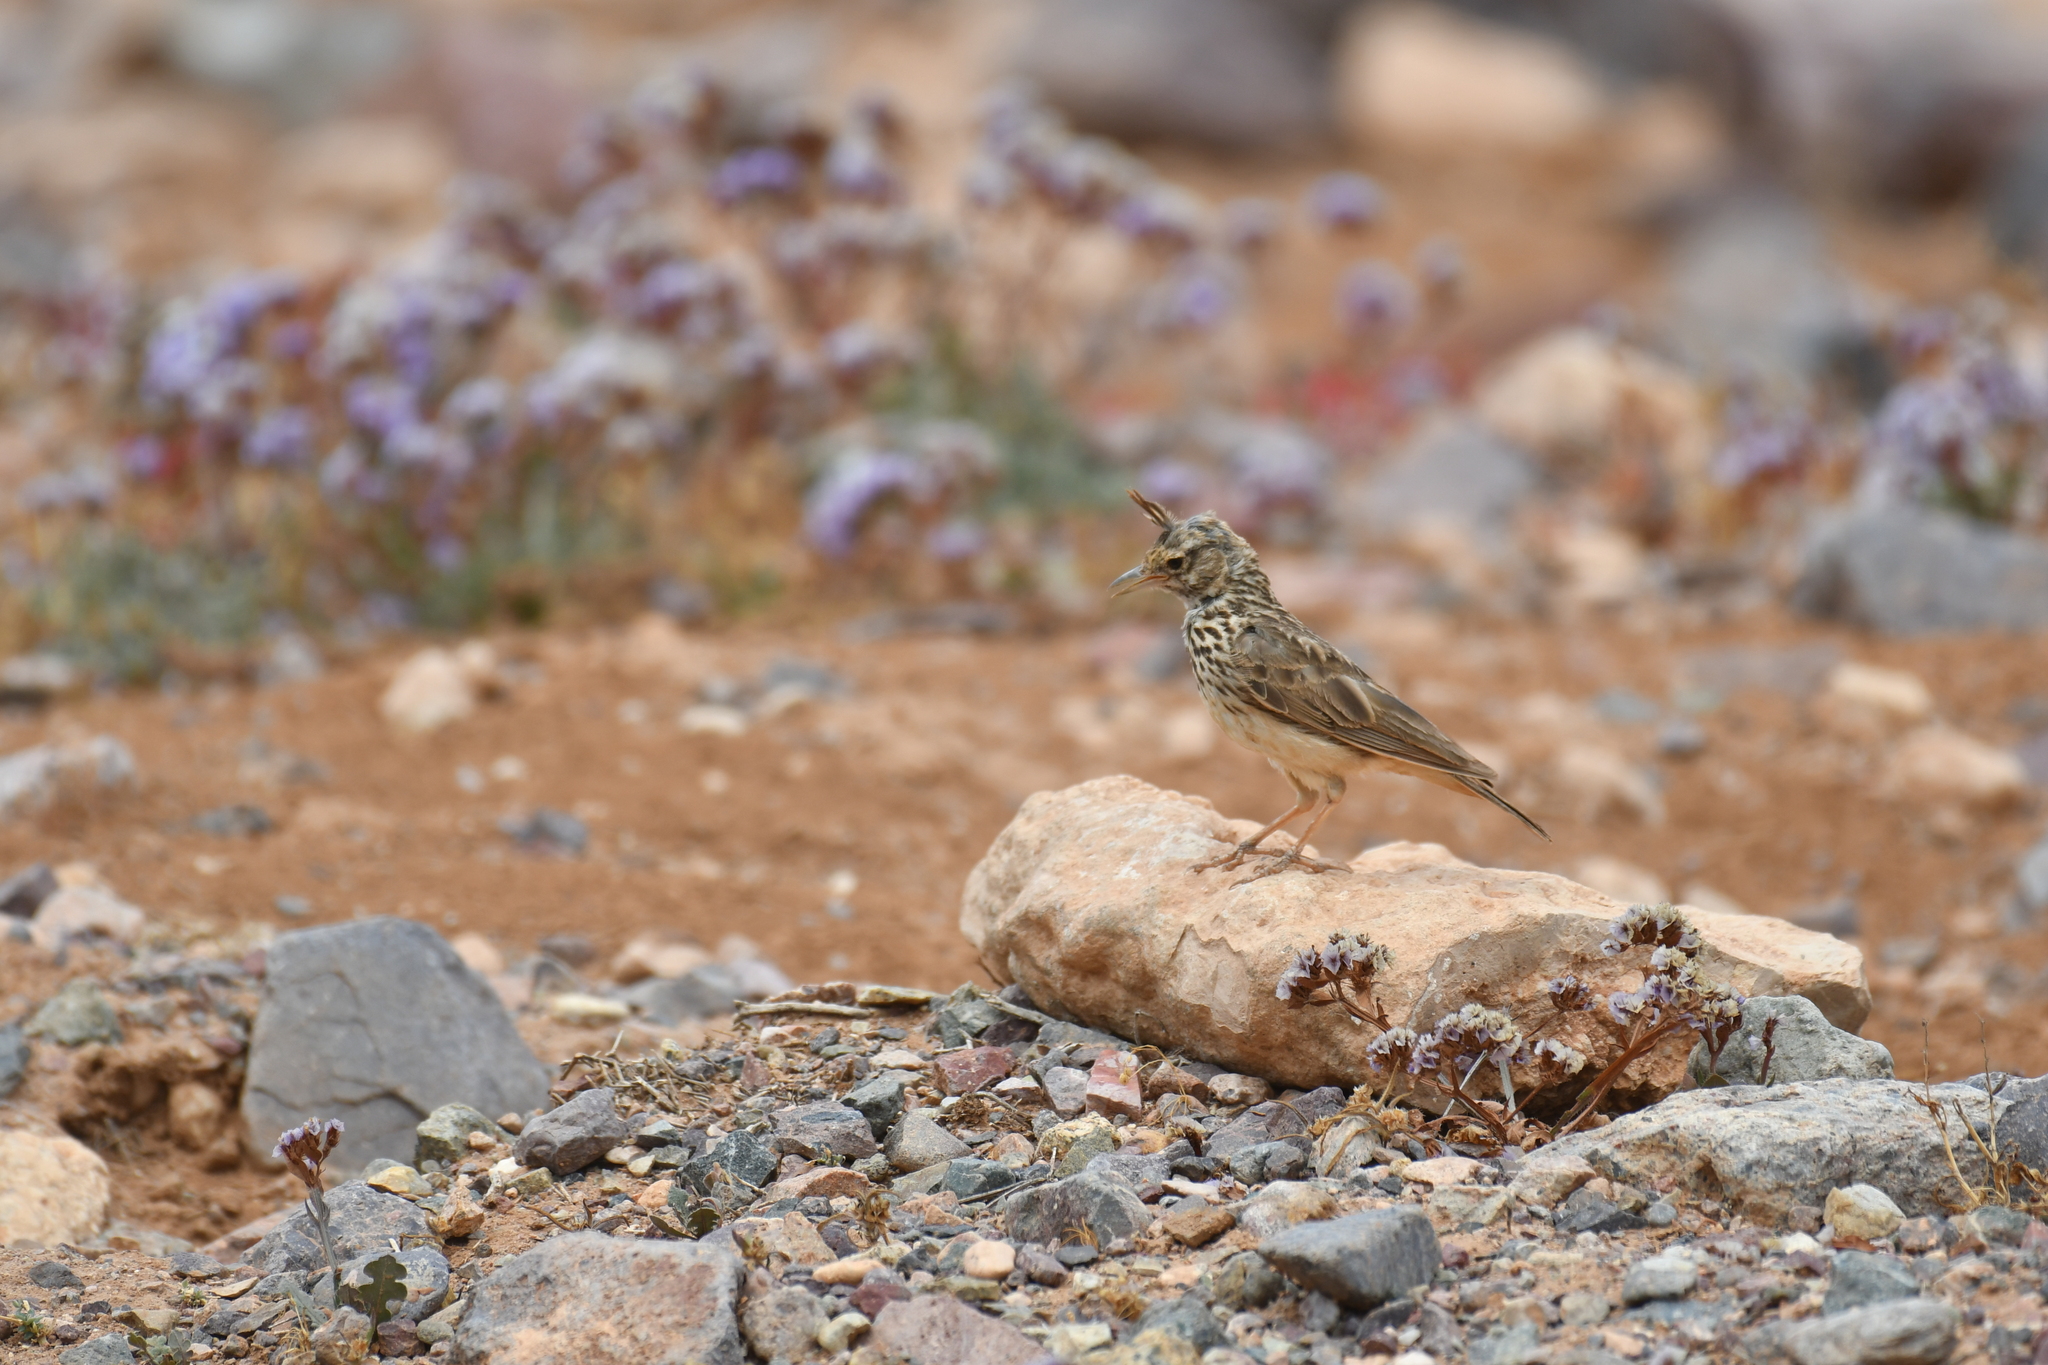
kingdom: Animalia
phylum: Chordata
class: Aves
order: Passeriformes
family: Alaudidae
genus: Galerida
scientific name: Galerida theklae
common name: Thekla lark
